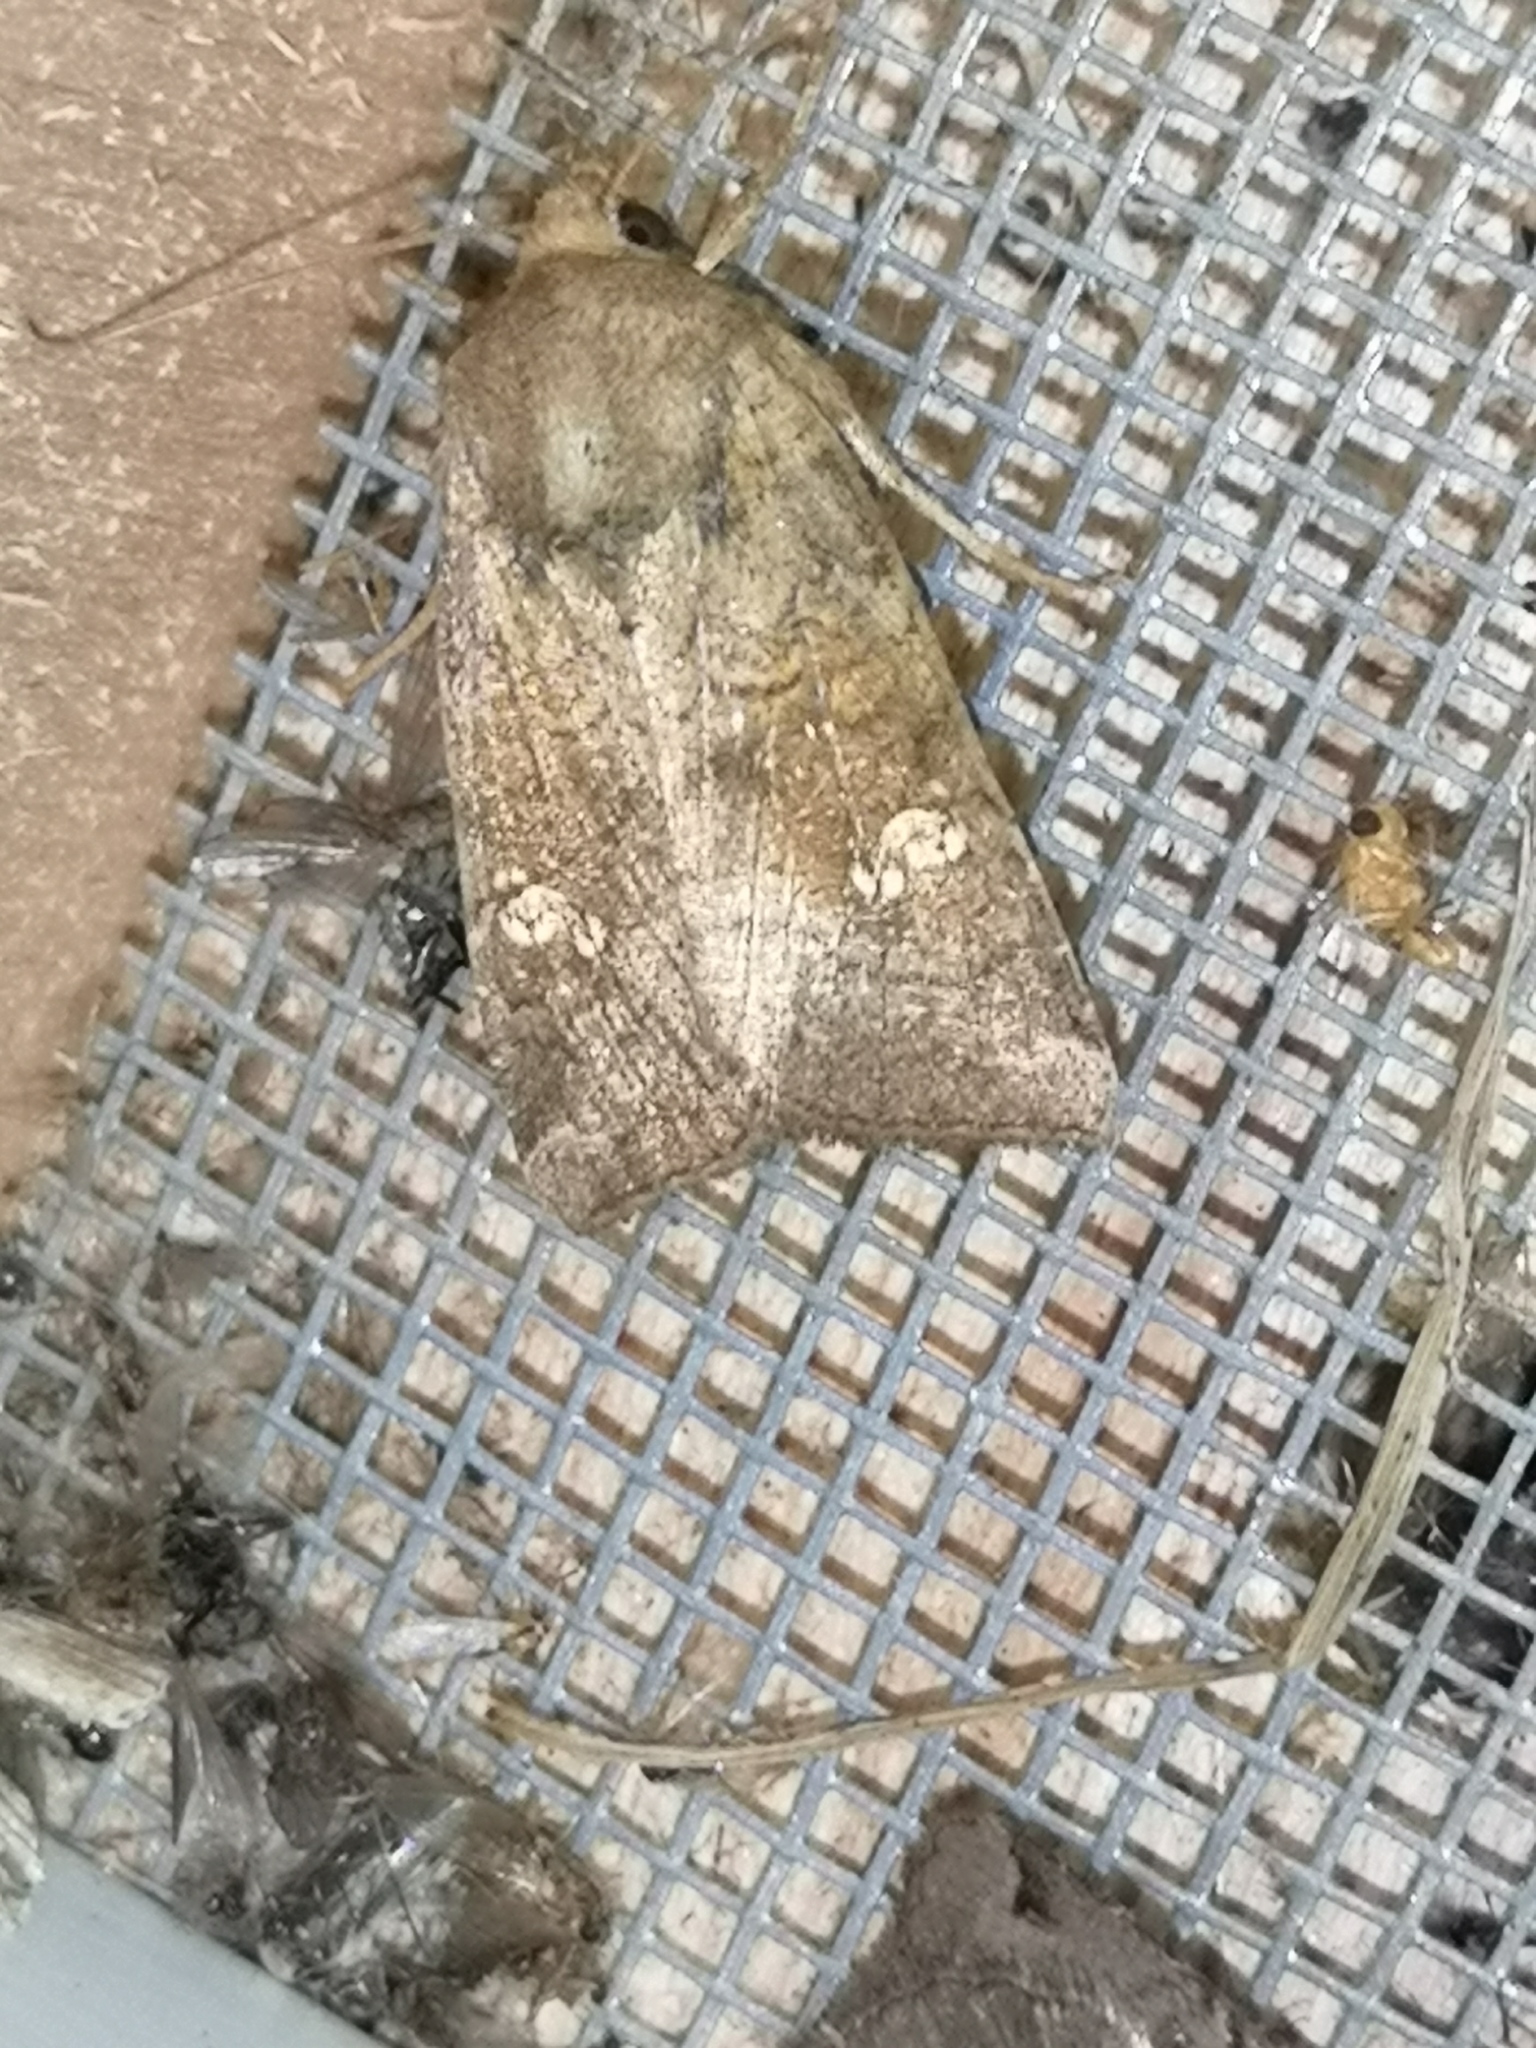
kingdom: Animalia
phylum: Arthropoda
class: Insecta
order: Lepidoptera
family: Noctuidae
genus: Amphipoea
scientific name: Amphipoea
